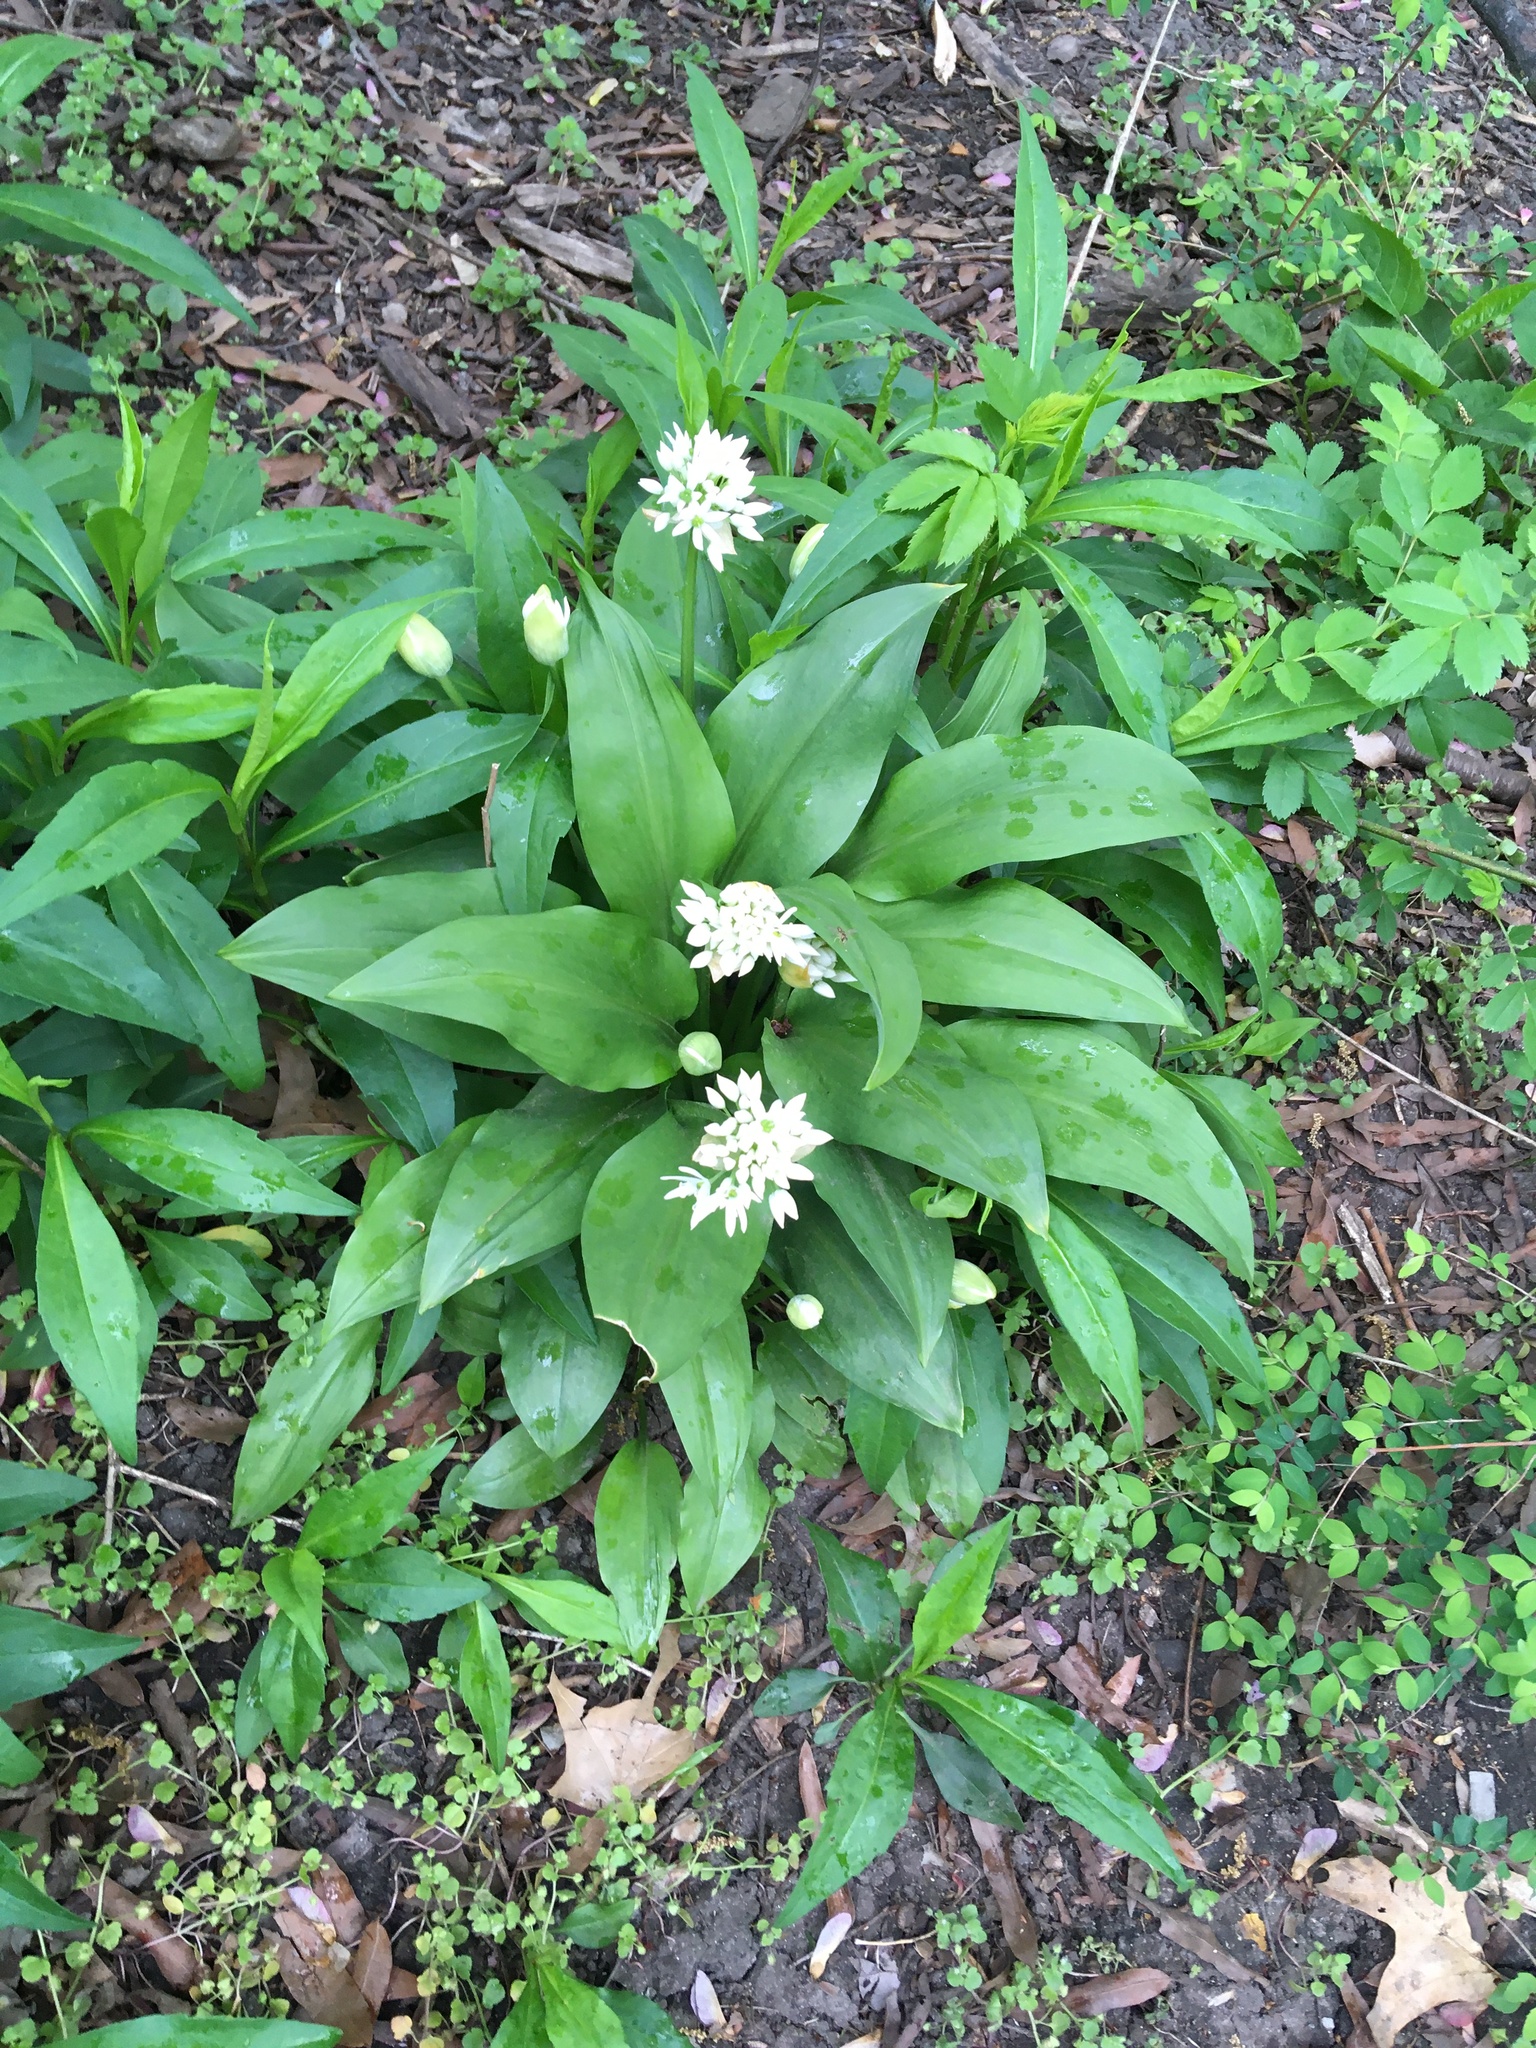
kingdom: Plantae
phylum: Tracheophyta
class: Liliopsida
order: Asparagales
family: Amaryllidaceae
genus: Allium
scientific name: Allium ursinum
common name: Ramsons
